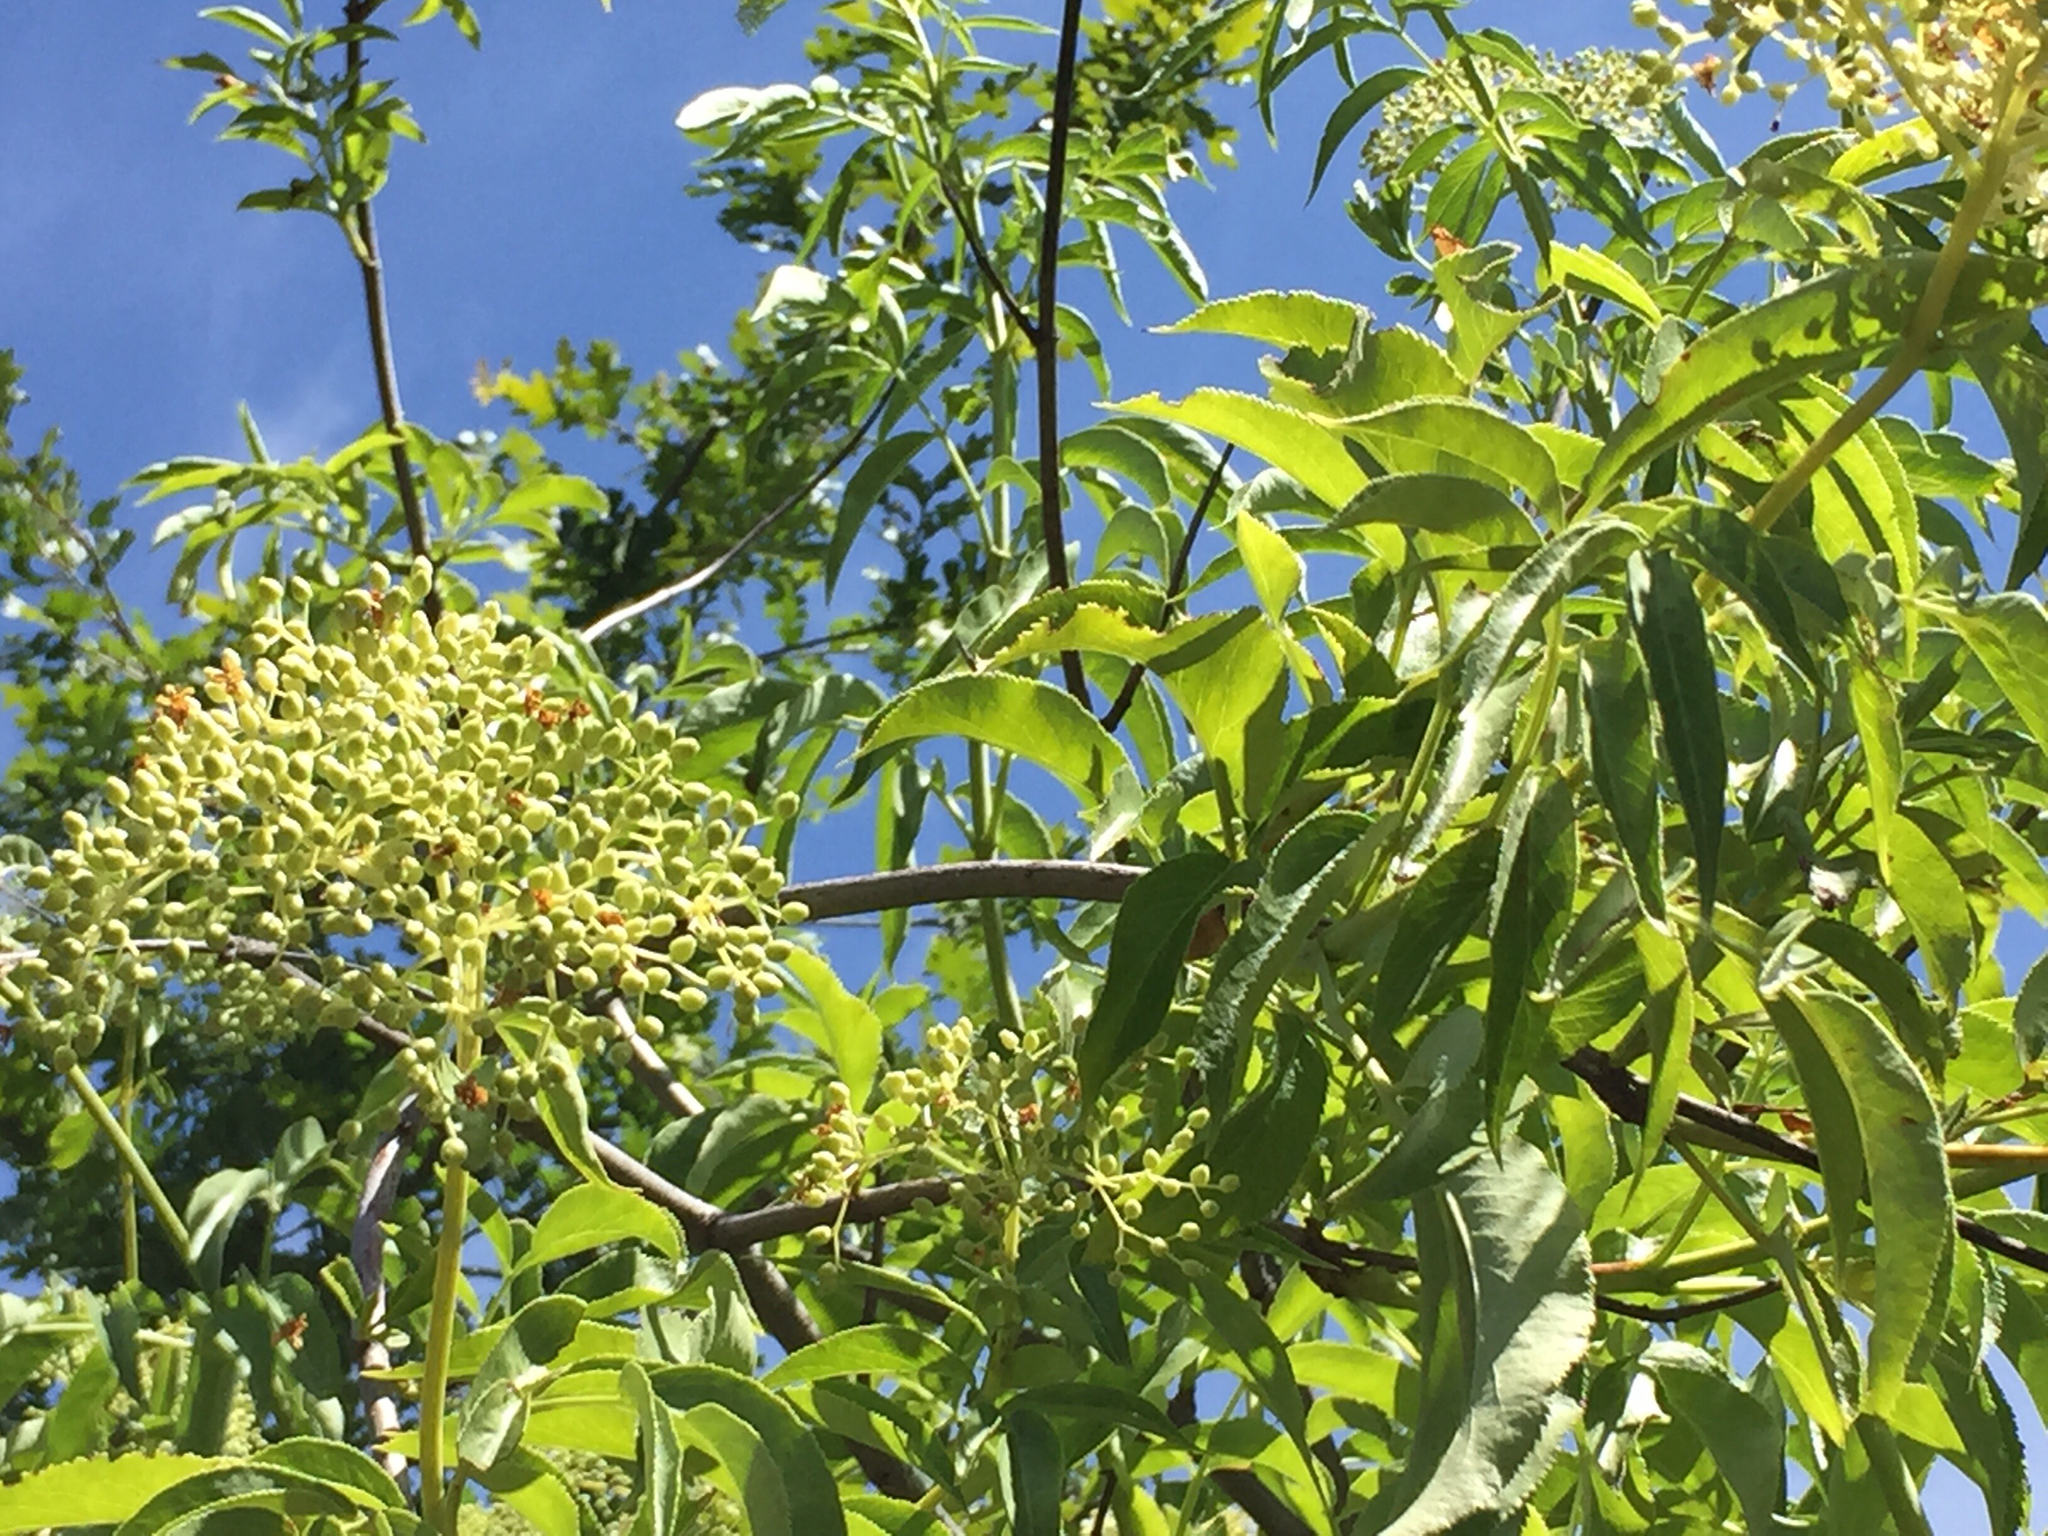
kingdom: Plantae
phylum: Tracheophyta
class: Magnoliopsida
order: Dipsacales
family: Viburnaceae
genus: Sambucus
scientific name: Sambucus cerulea
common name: Blue elder
